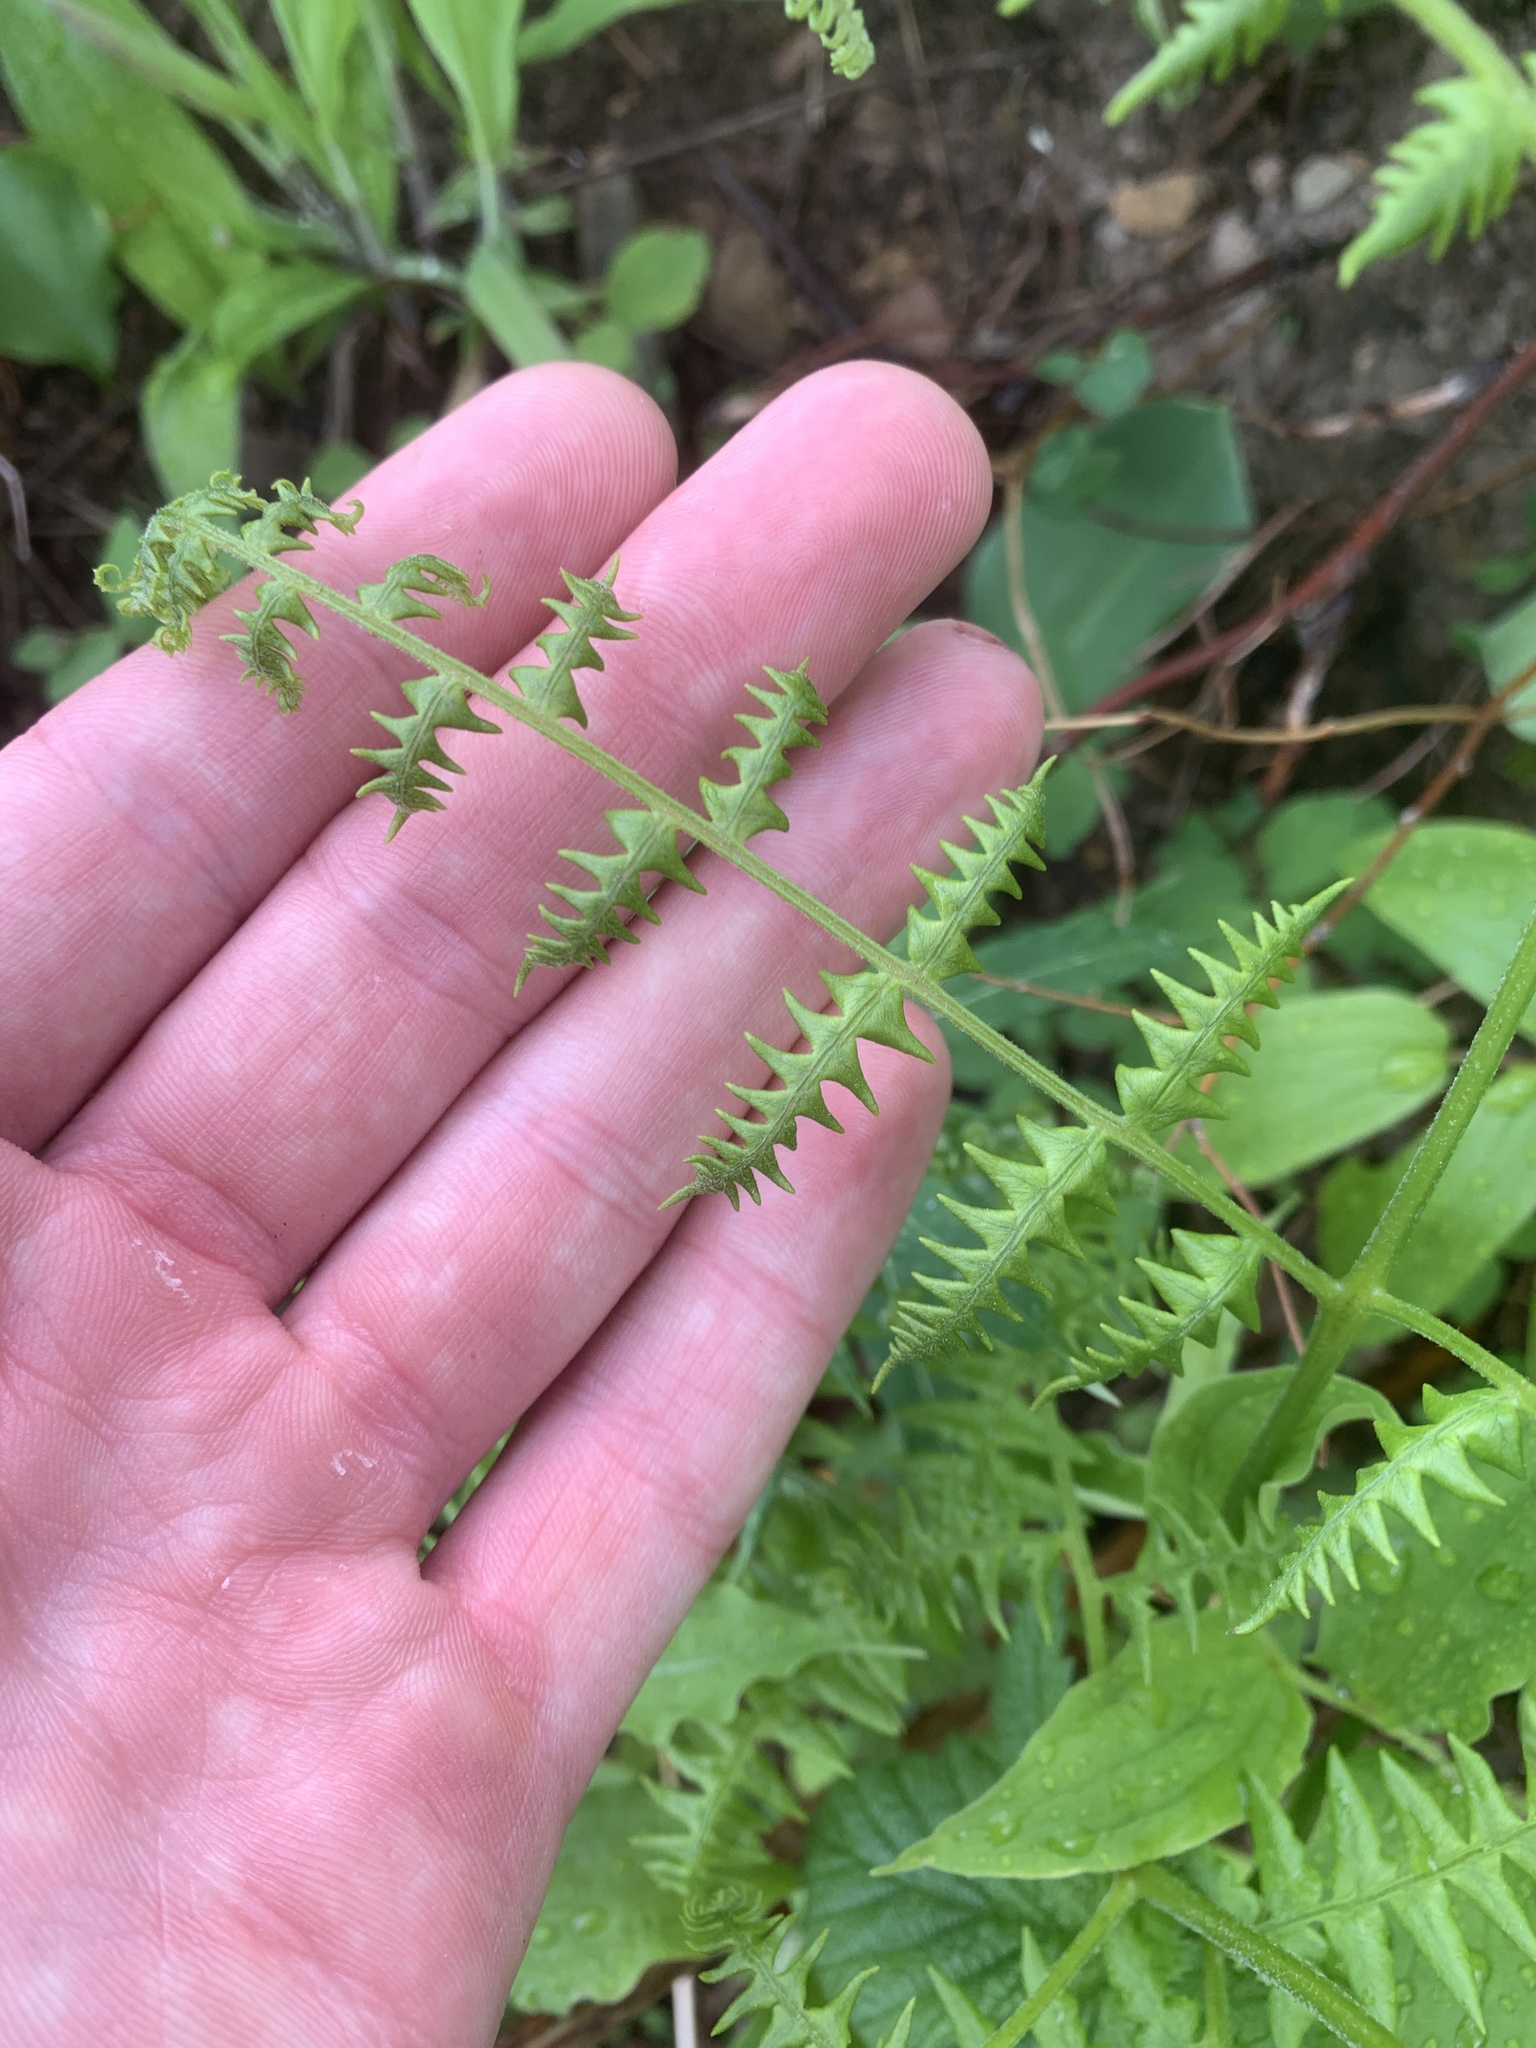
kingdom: Plantae
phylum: Tracheophyta
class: Polypodiopsida
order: Polypodiales
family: Dennstaedtiaceae
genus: Pteridium
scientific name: Pteridium aquilinum
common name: Bracken
